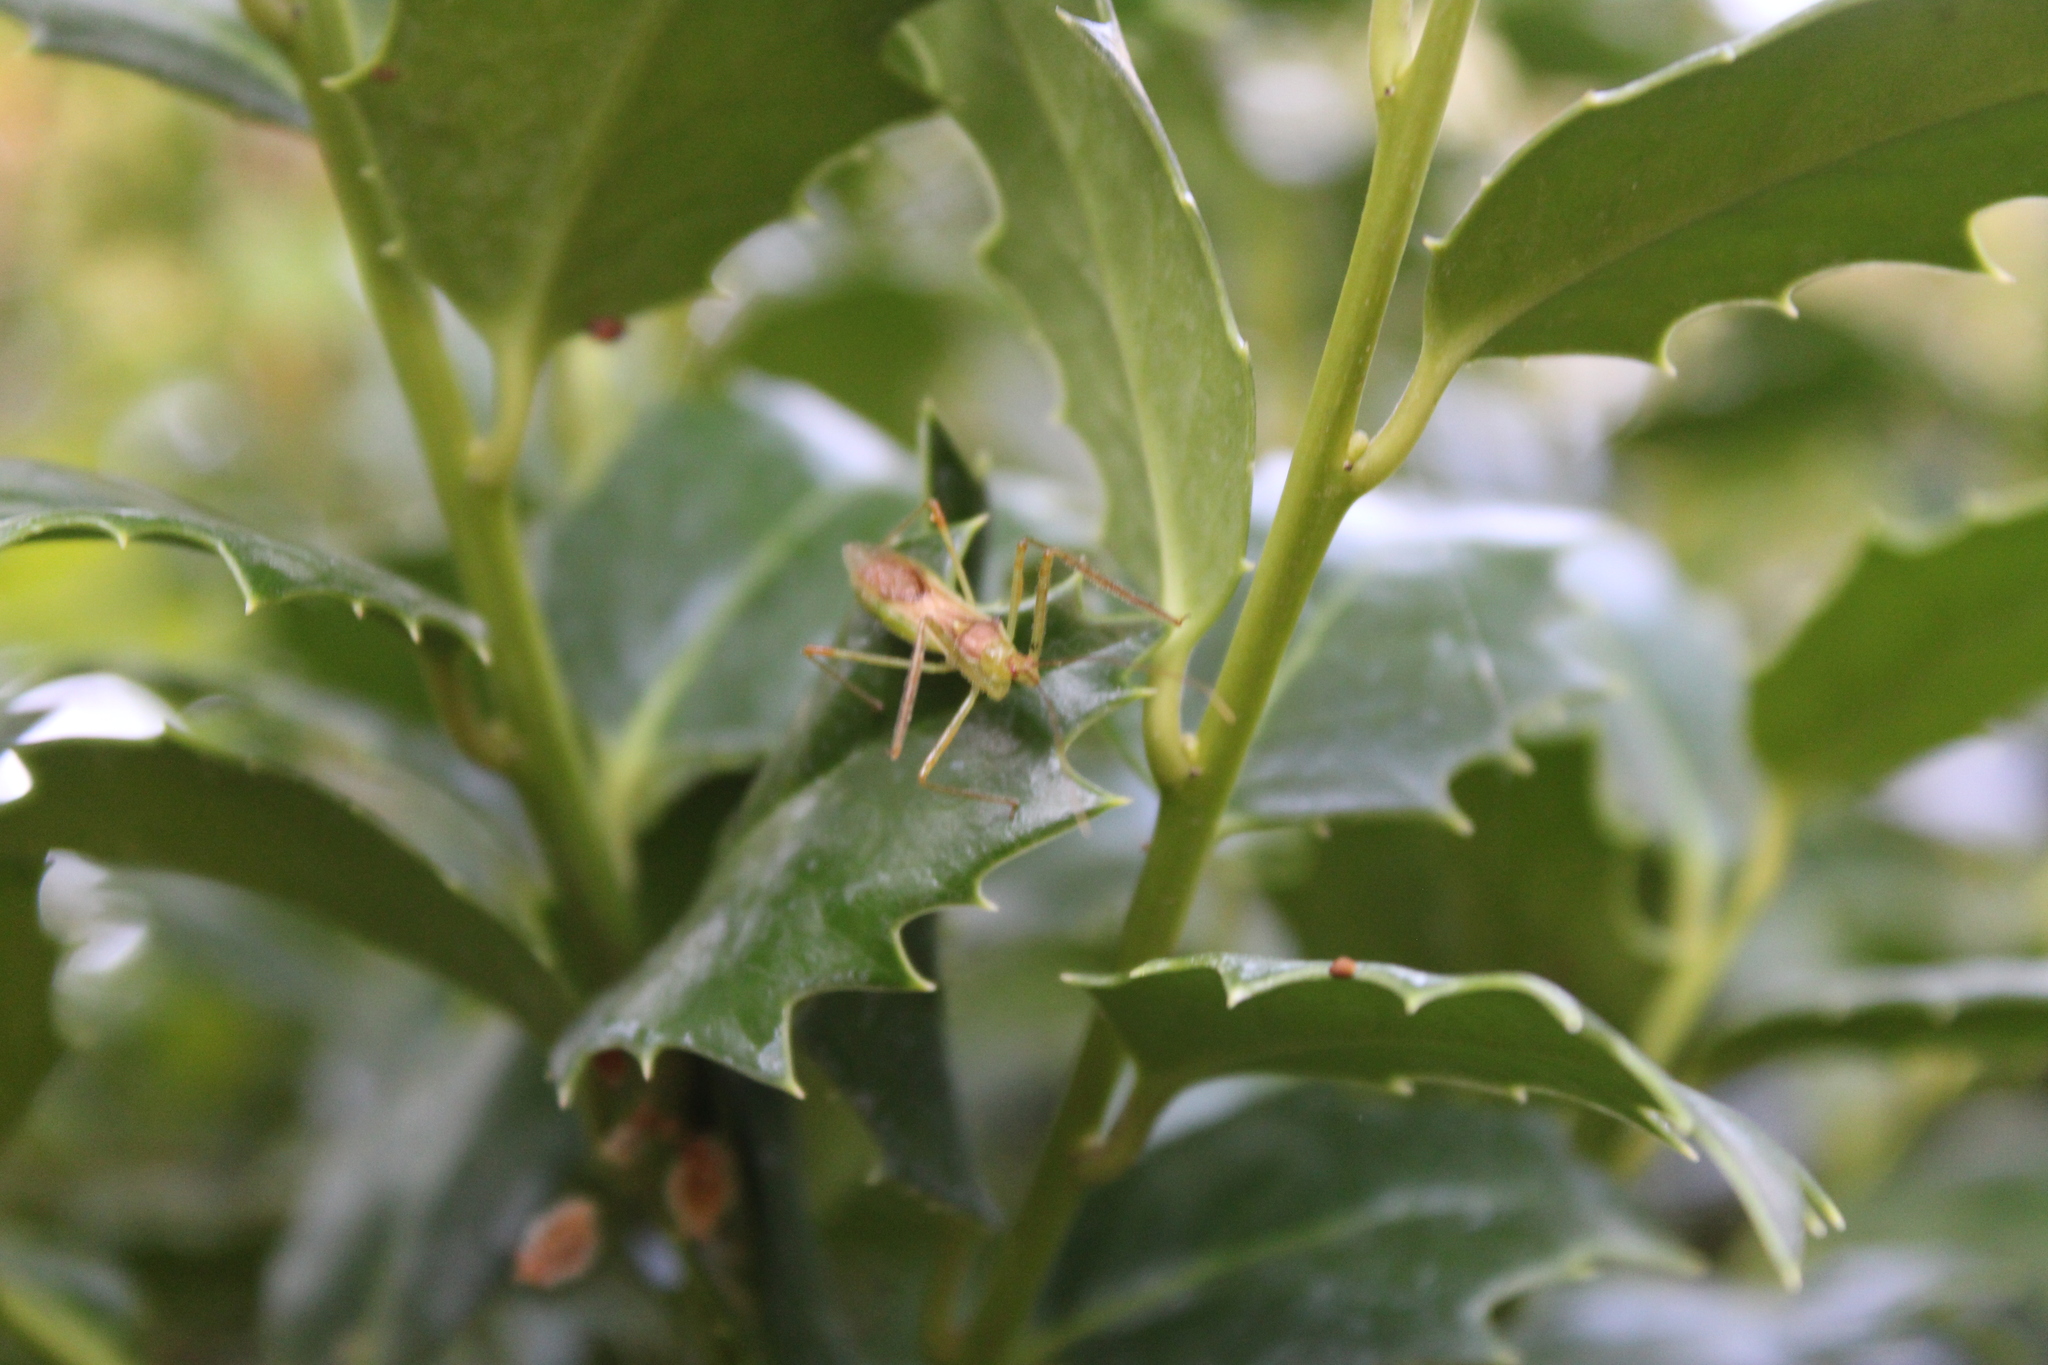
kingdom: Animalia
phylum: Arthropoda
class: Insecta
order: Hemiptera
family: Reduviidae
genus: Zelus
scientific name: Zelus renardii
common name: Assassin bug
